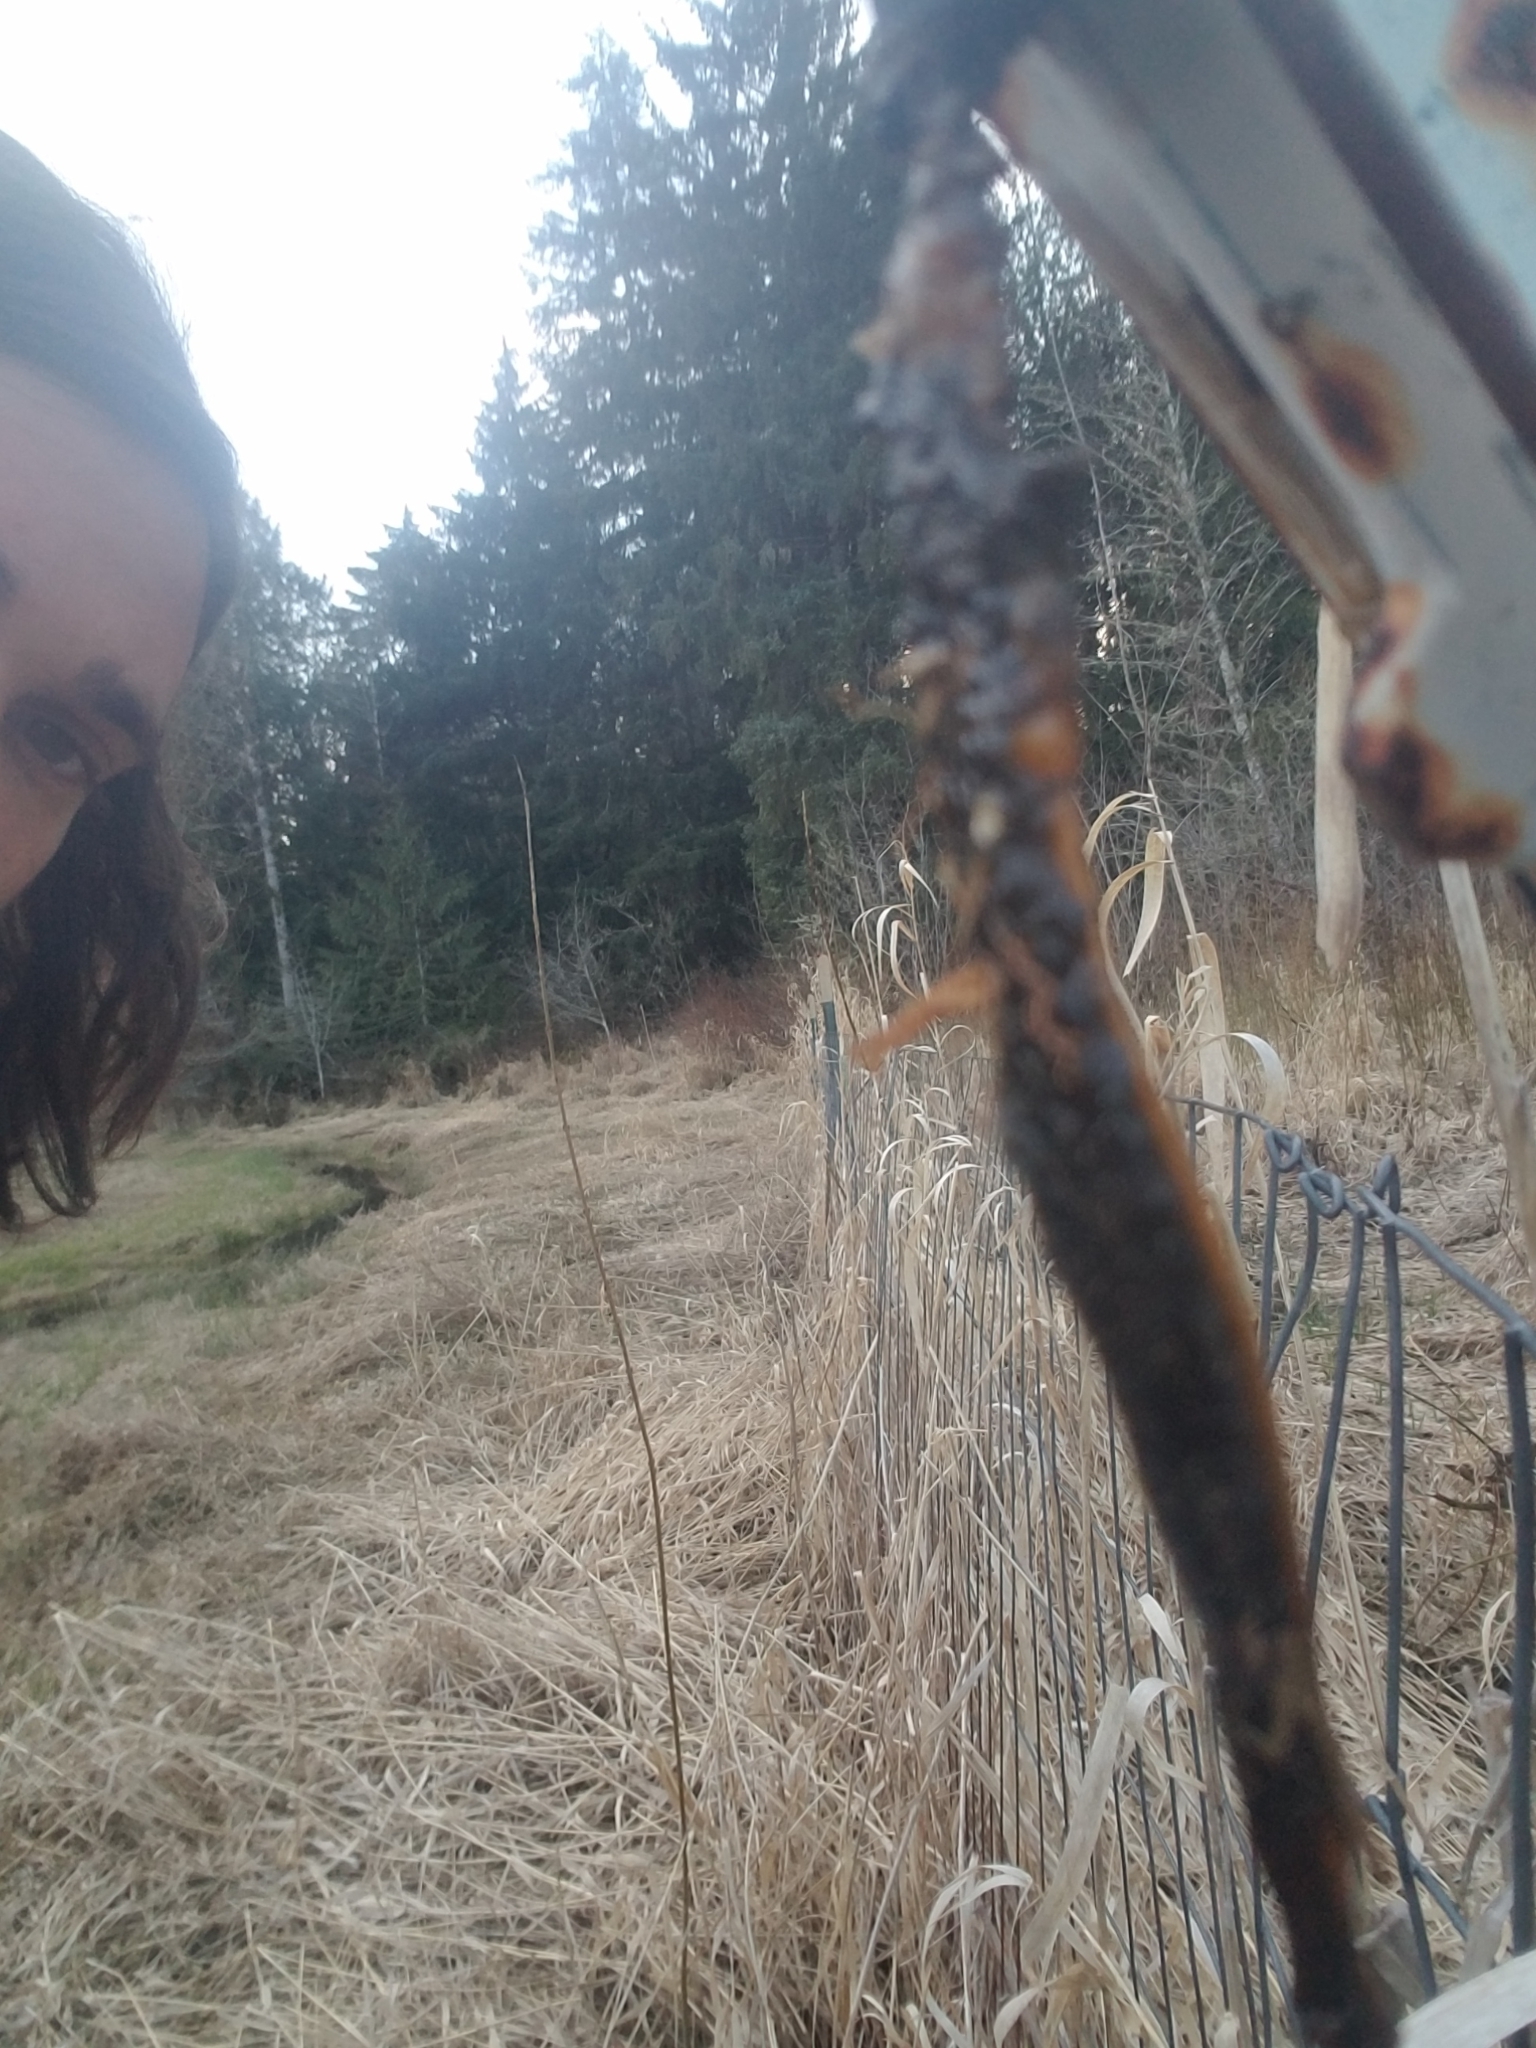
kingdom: Animalia
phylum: Chordata
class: Amphibia
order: Caudata
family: Salamandridae
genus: Taricha
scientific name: Taricha granulosa
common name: Roughskin newt
